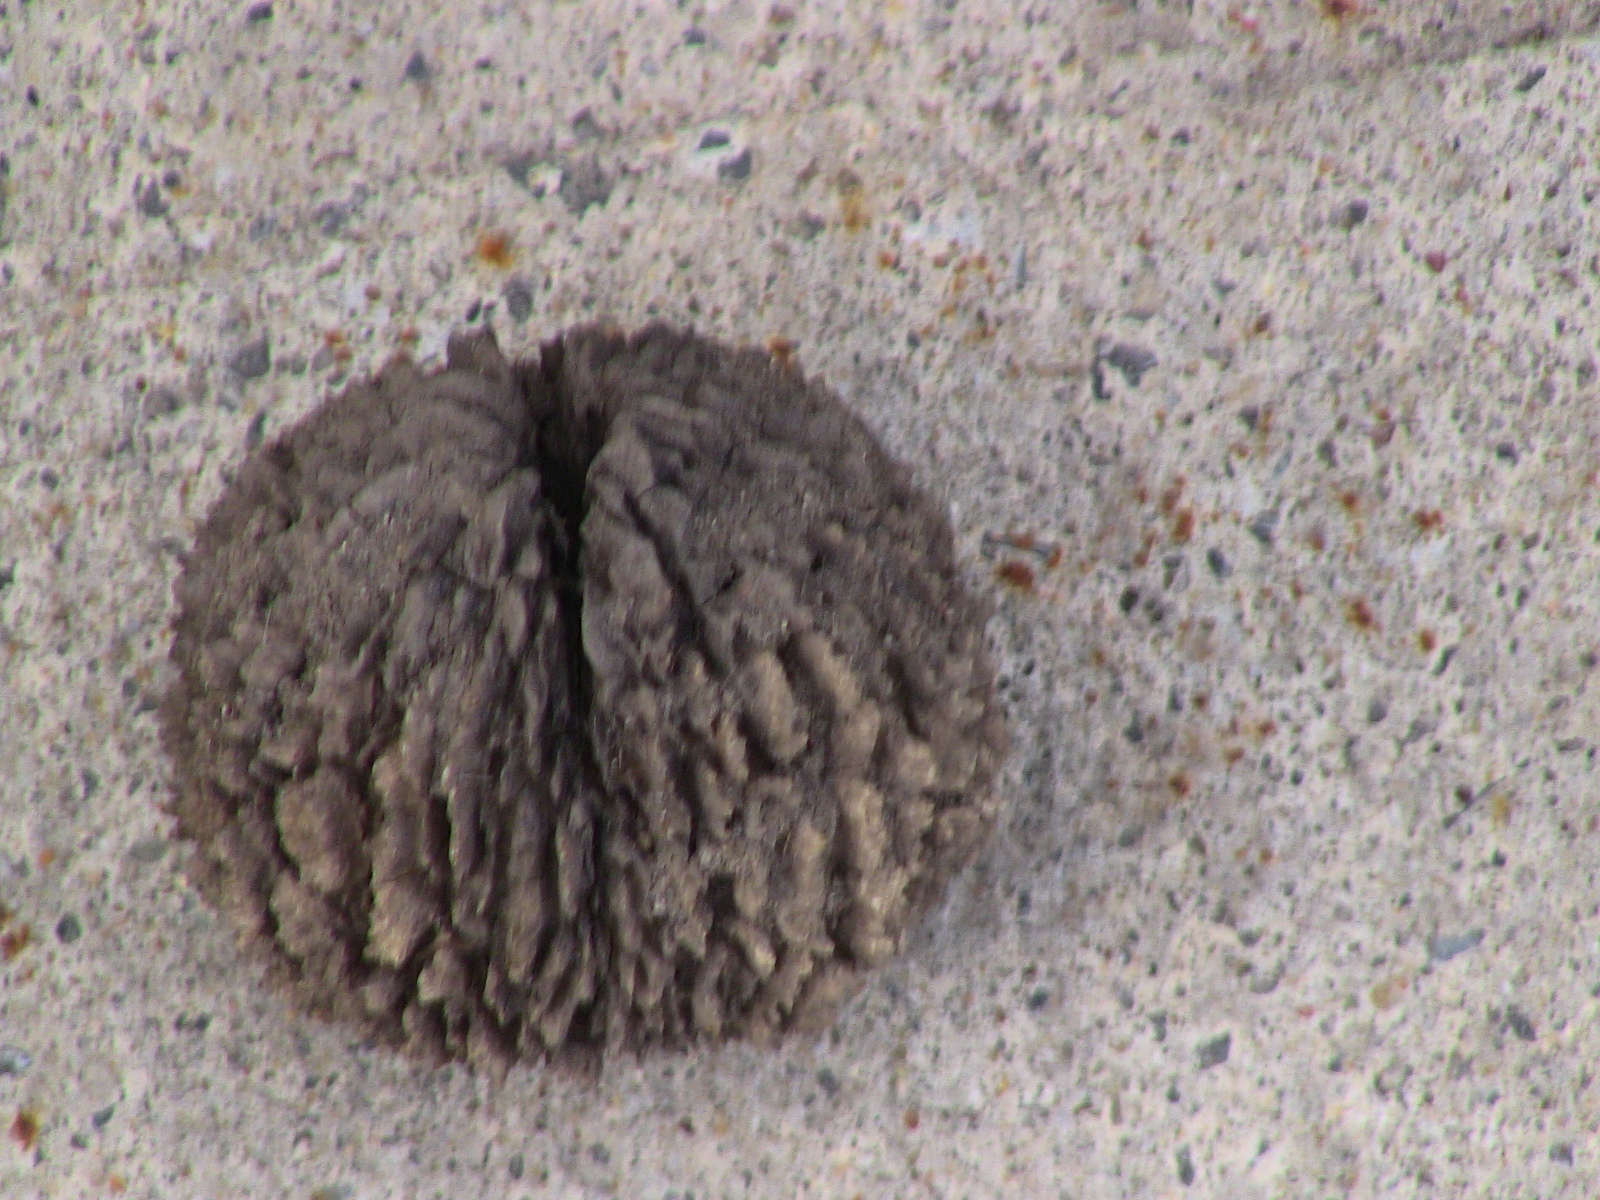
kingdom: Plantae
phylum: Tracheophyta
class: Magnoliopsida
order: Fagales
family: Juglandaceae
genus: Juglans
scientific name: Juglans nigra
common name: Black walnut
